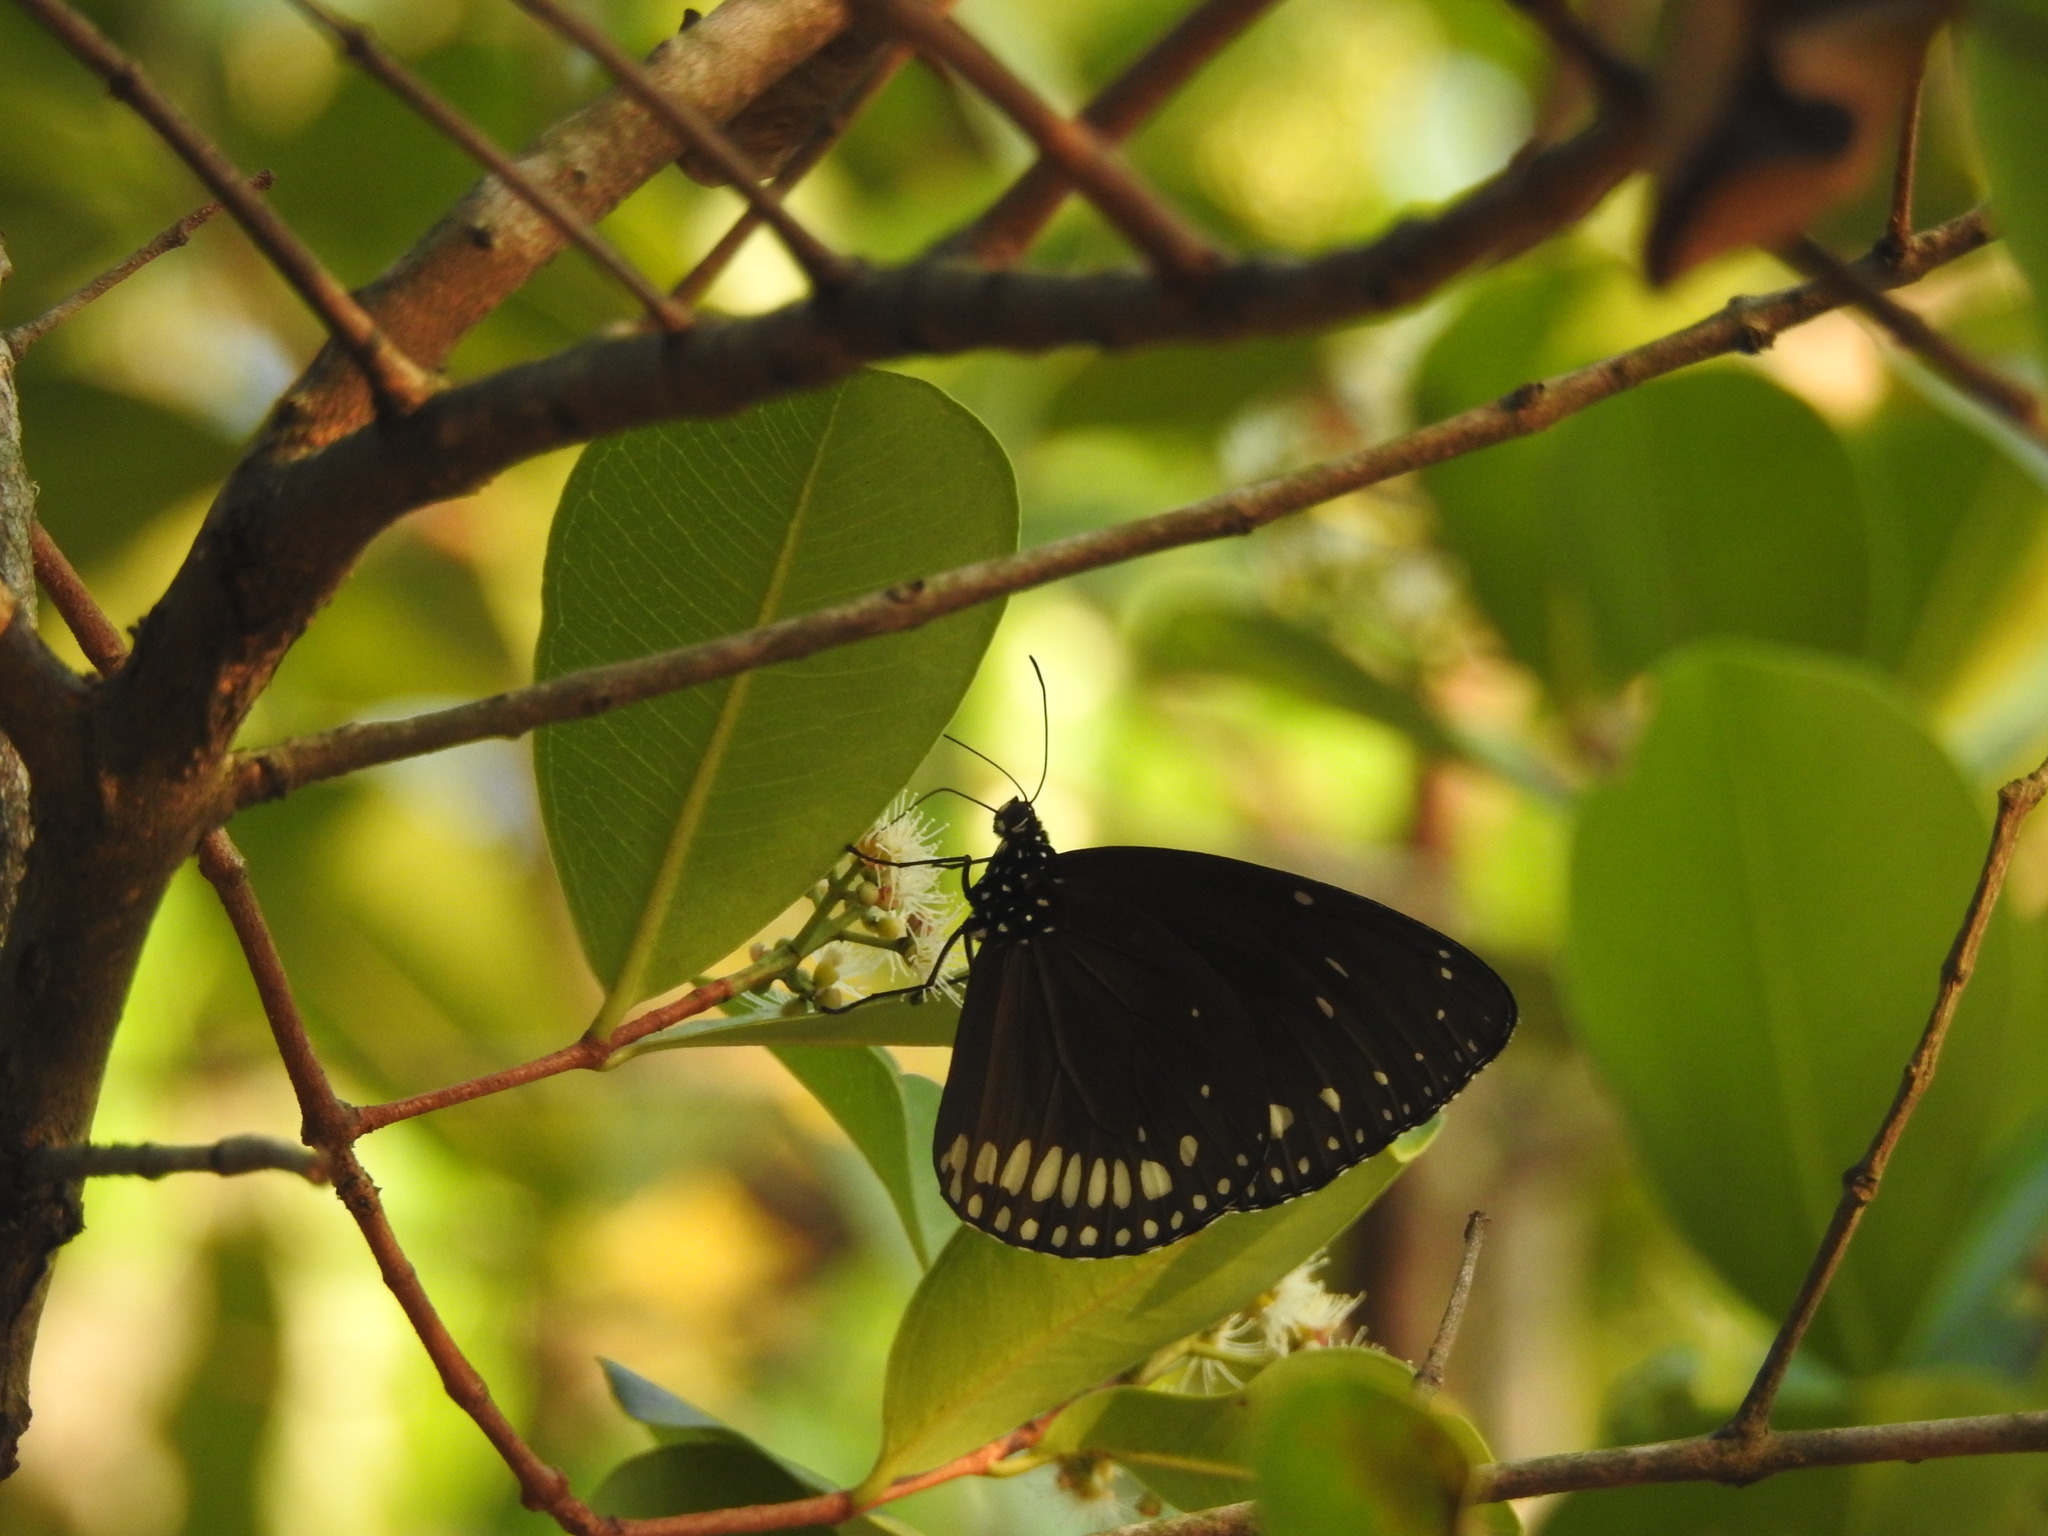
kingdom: Animalia
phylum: Arthropoda
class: Insecta
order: Lepidoptera
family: Nymphalidae
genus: Euploea
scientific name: Euploea klugii
